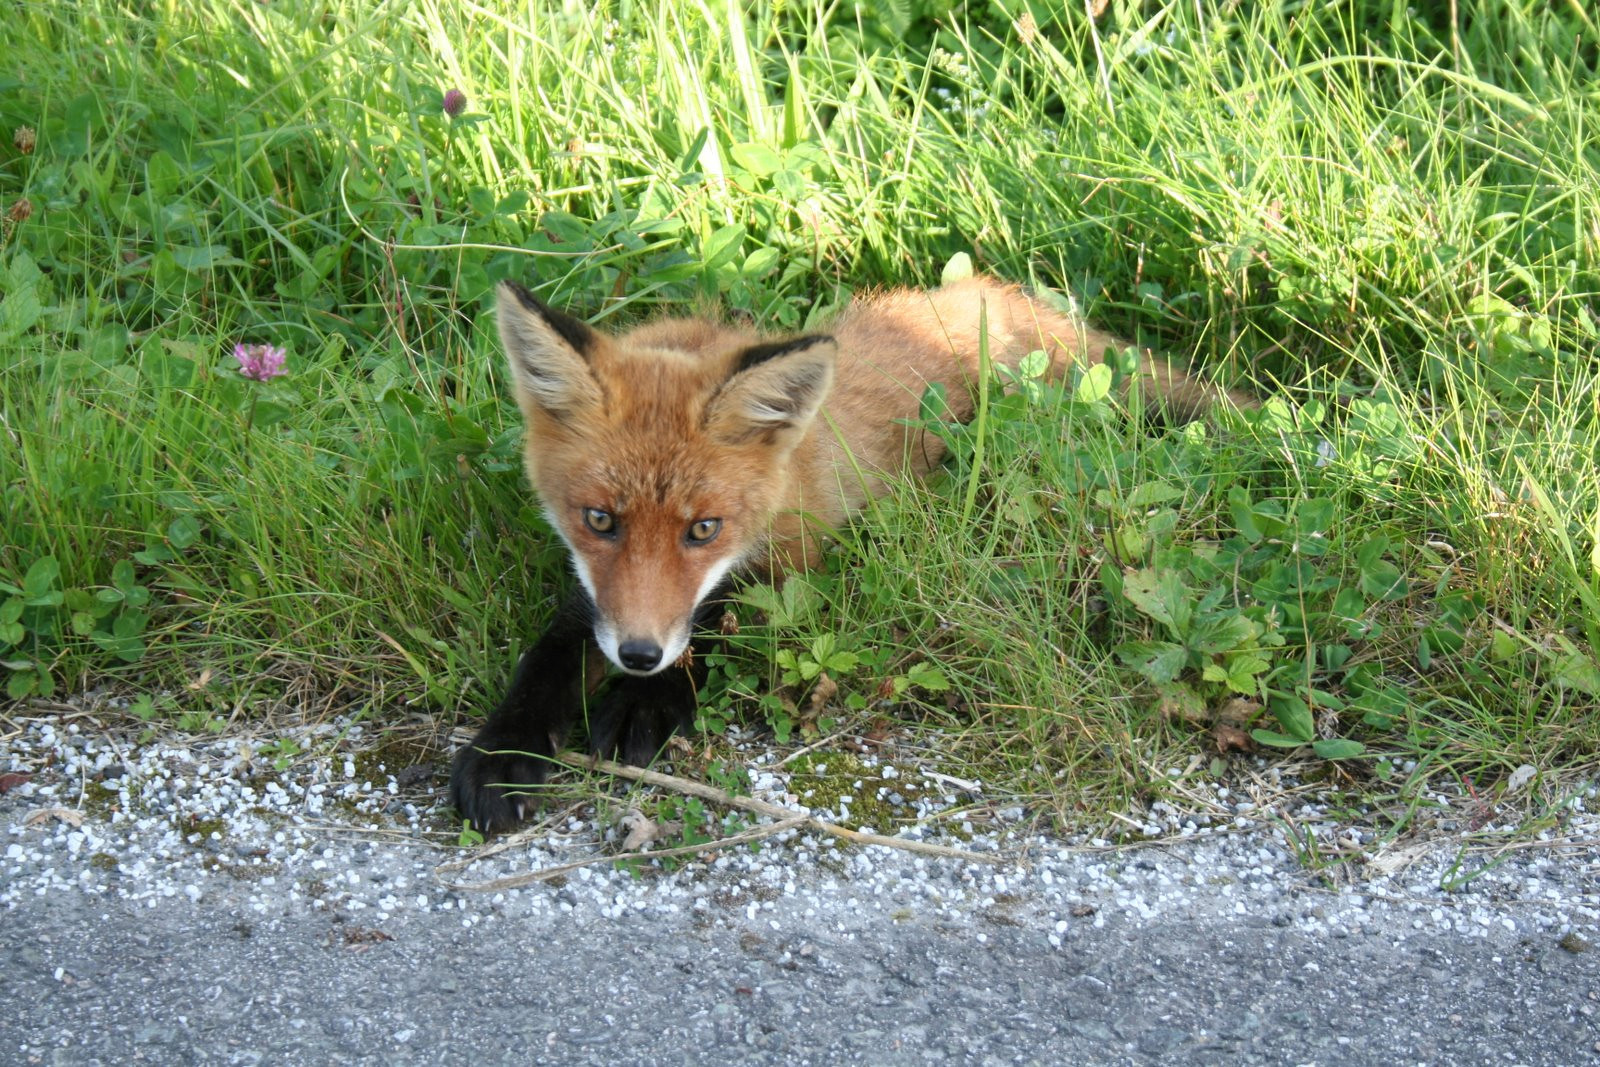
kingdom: Animalia
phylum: Chordata
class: Mammalia
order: Carnivora
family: Canidae
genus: Vulpes
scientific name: Vulpes vulpes
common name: Red fox
